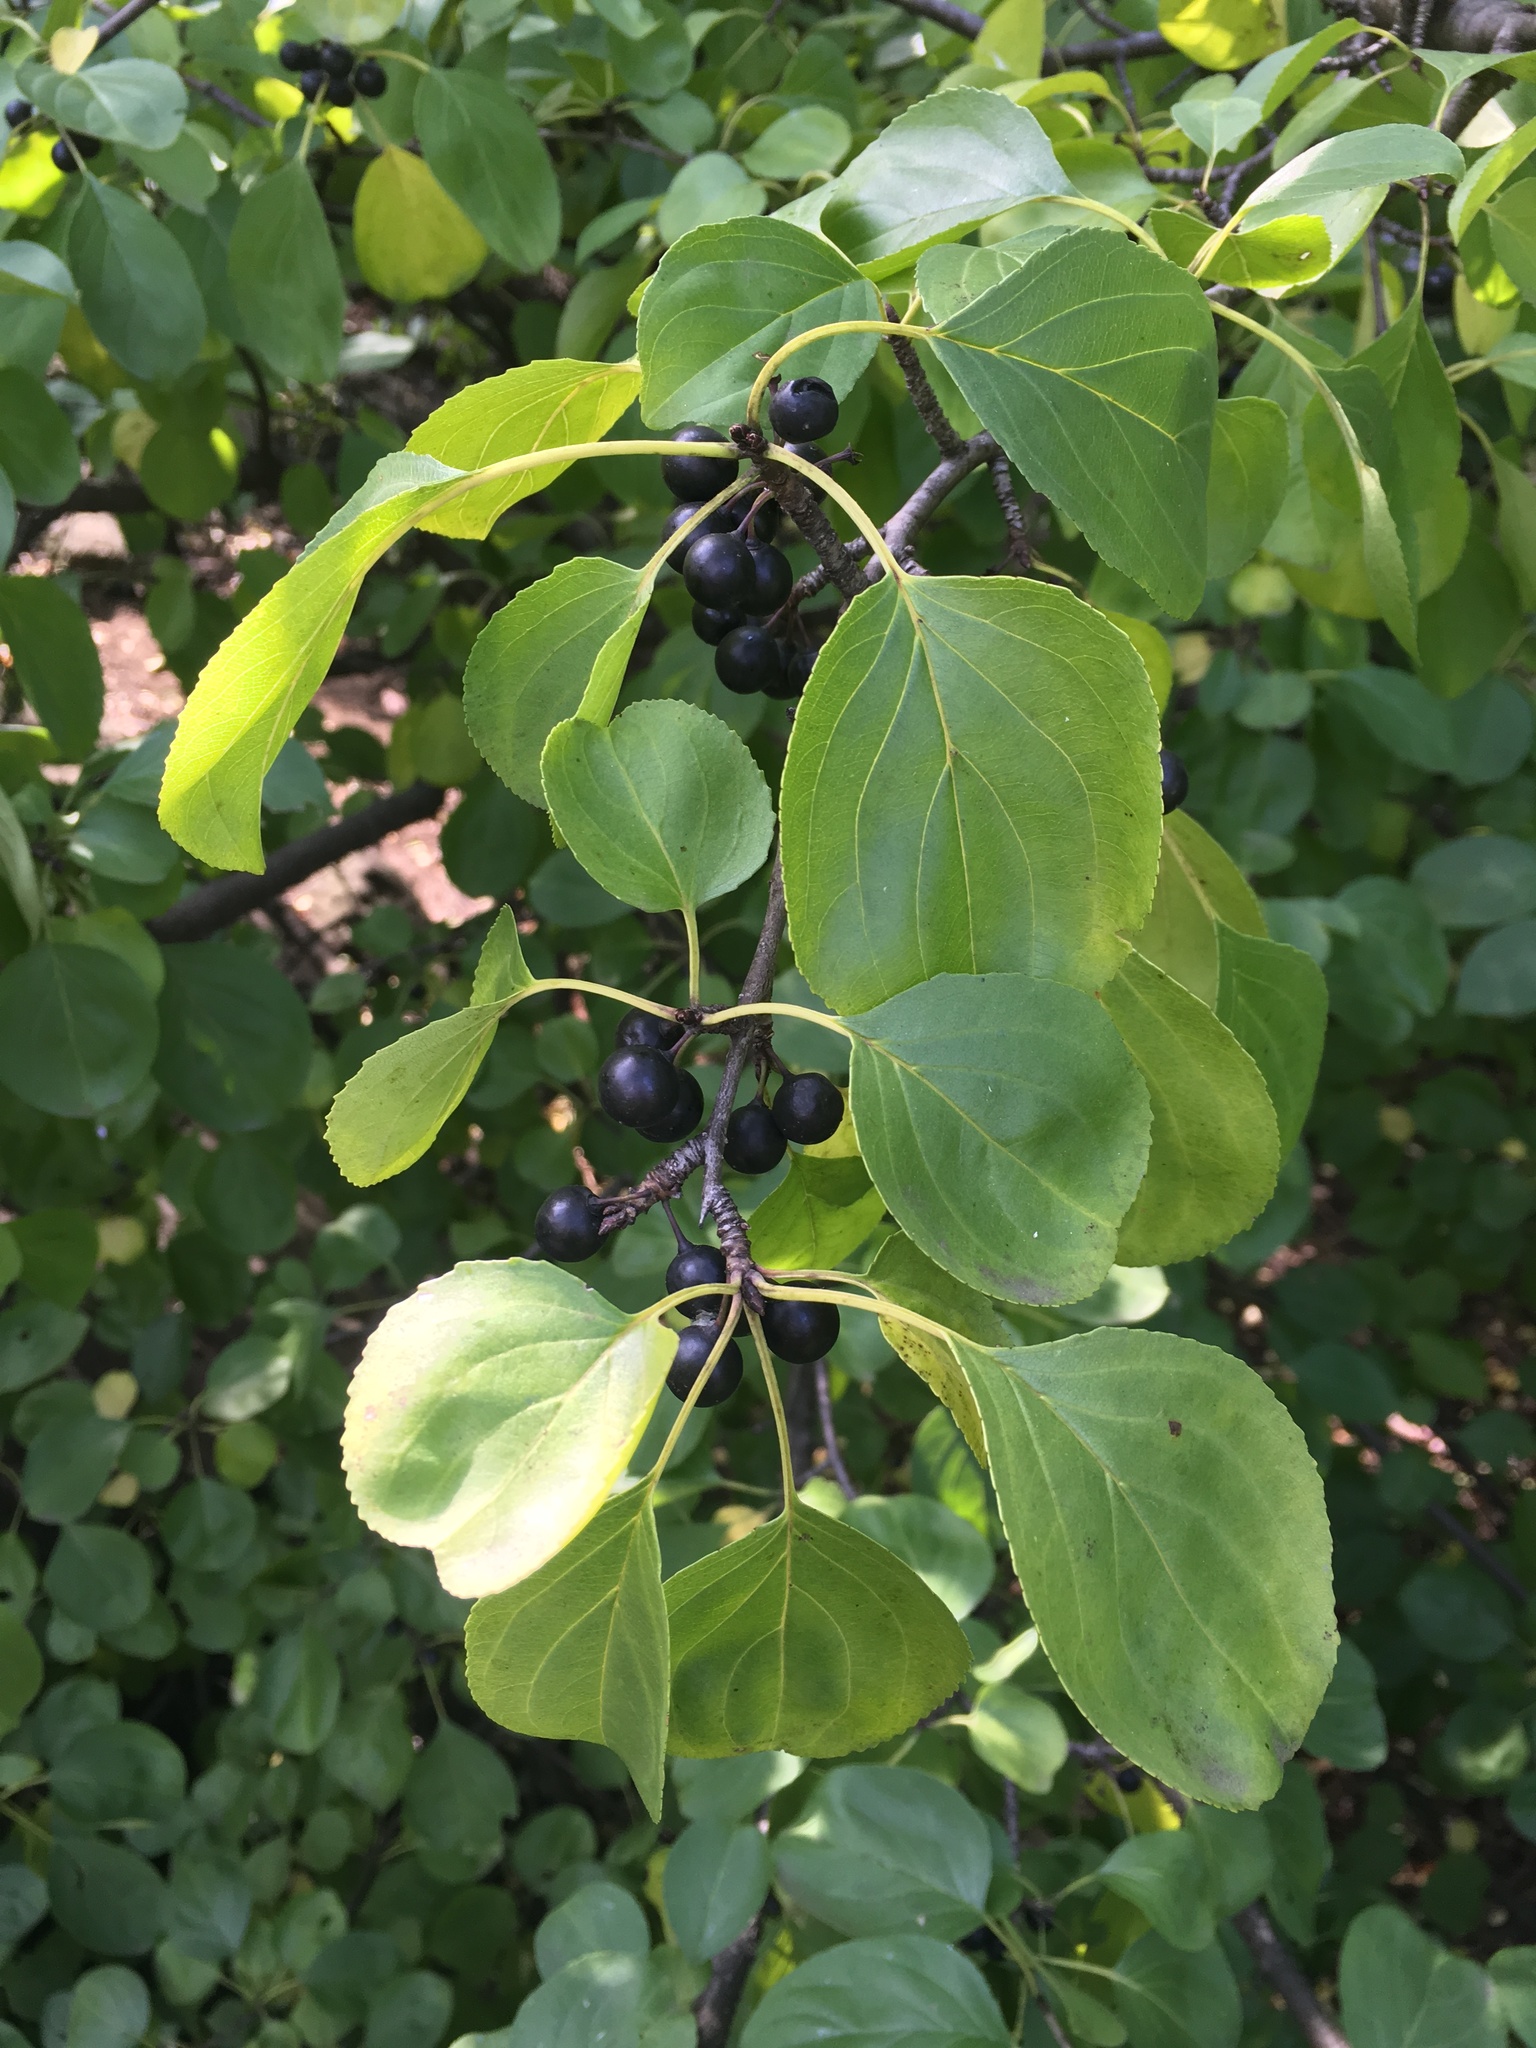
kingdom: Plantae
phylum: Tracheophyta
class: Magnoliopsida
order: Rosales
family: Rhamnaceae
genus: Rhamnus
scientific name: Rhamnus cathartica
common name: Common buckthorn
